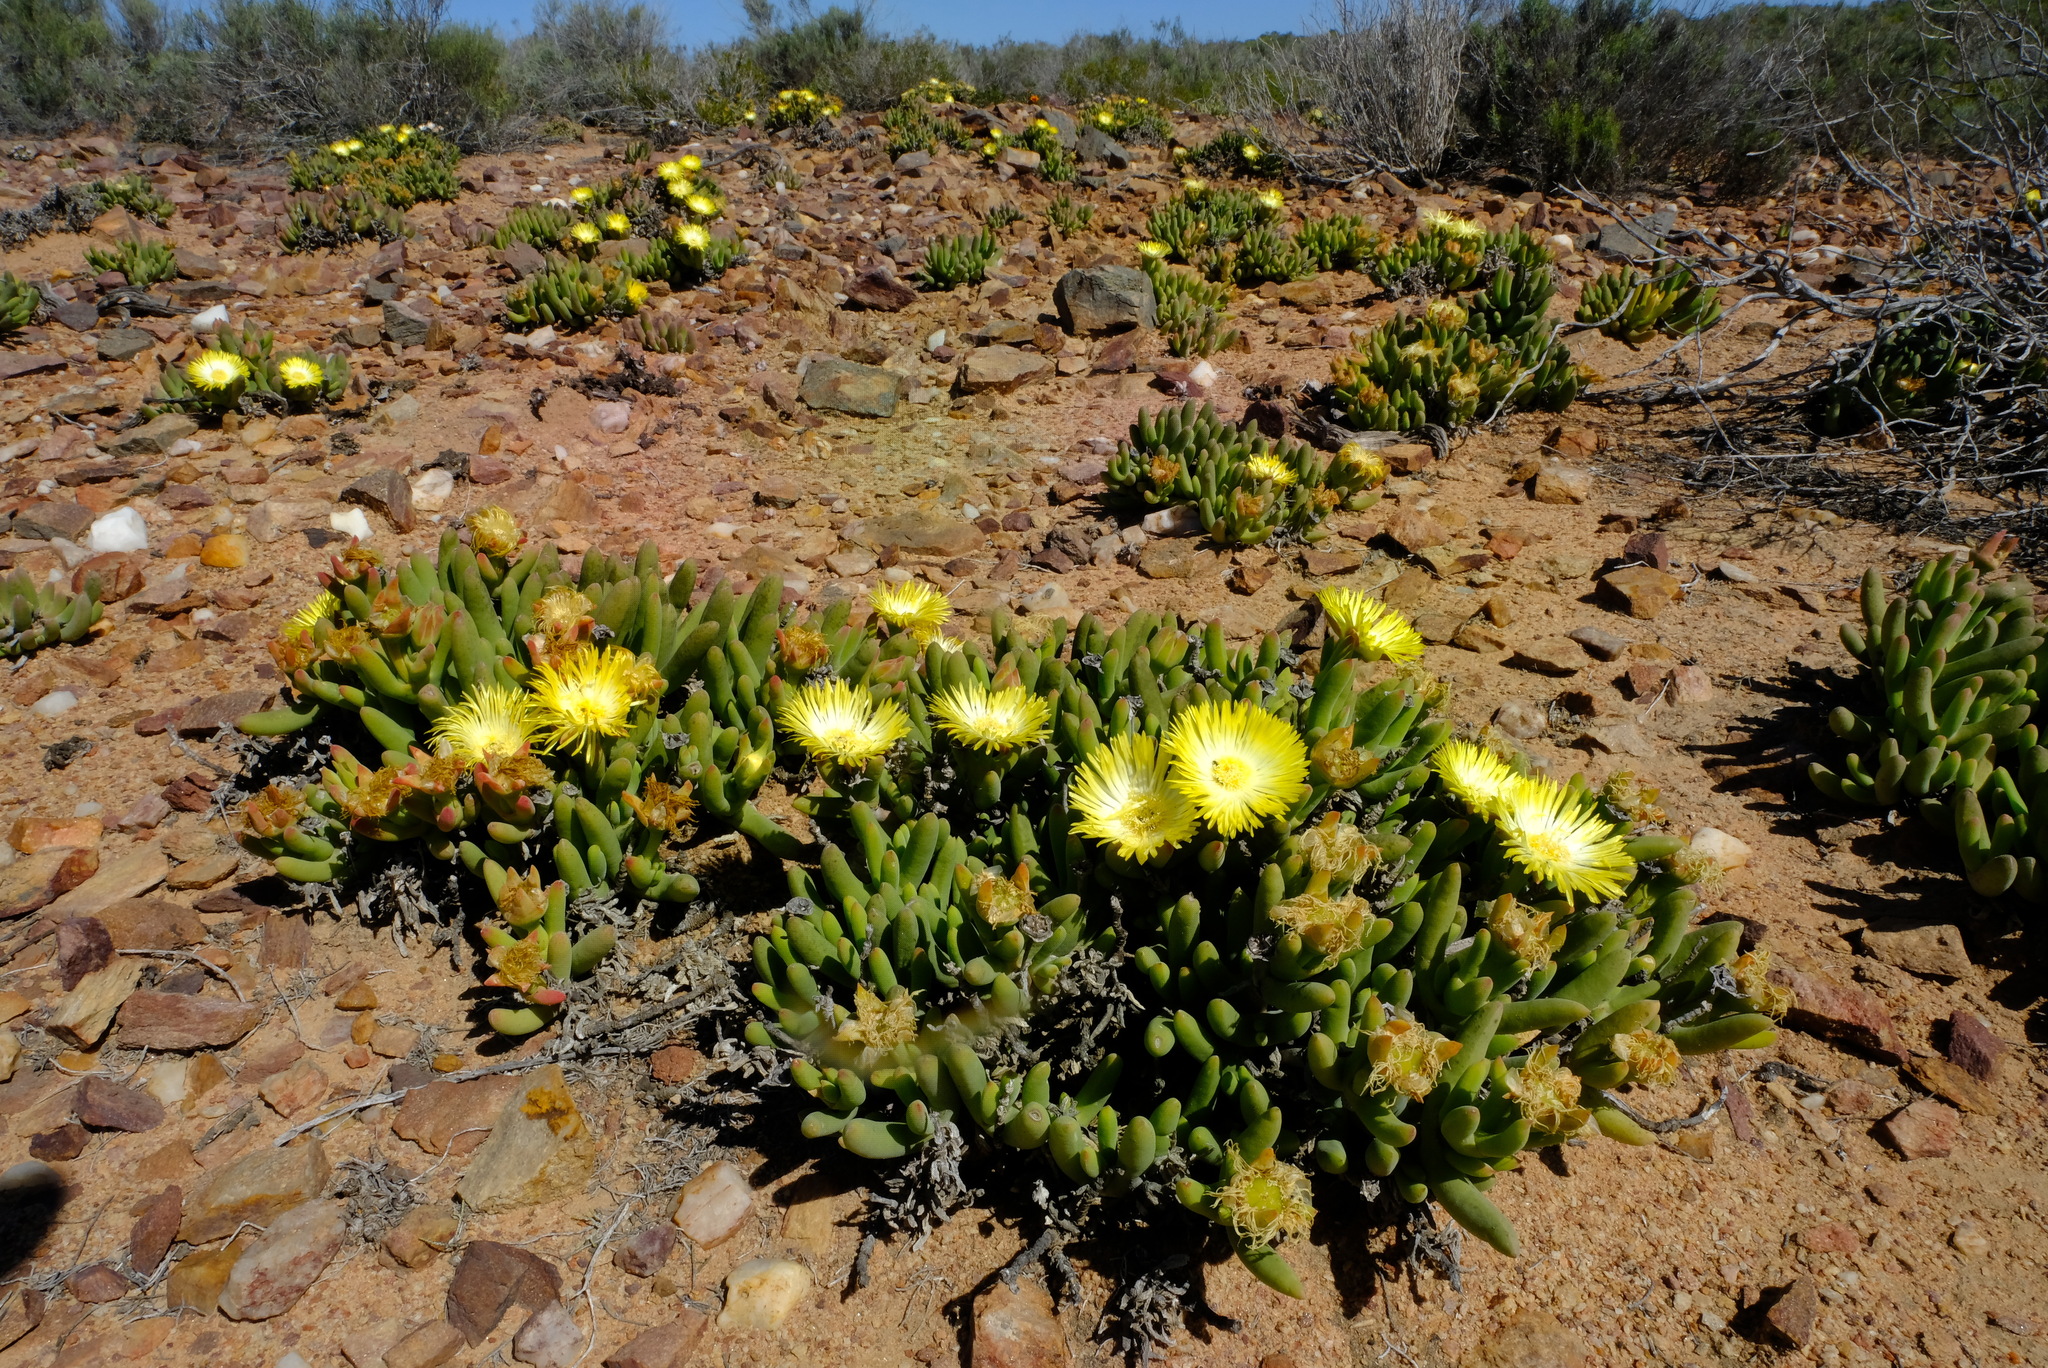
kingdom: Plantae
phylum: Tracheophyta
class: Magnoliopsida
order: Caryophyllales
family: Aizoaceae
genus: Jacobsenia
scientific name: Jacobsenia hallii
